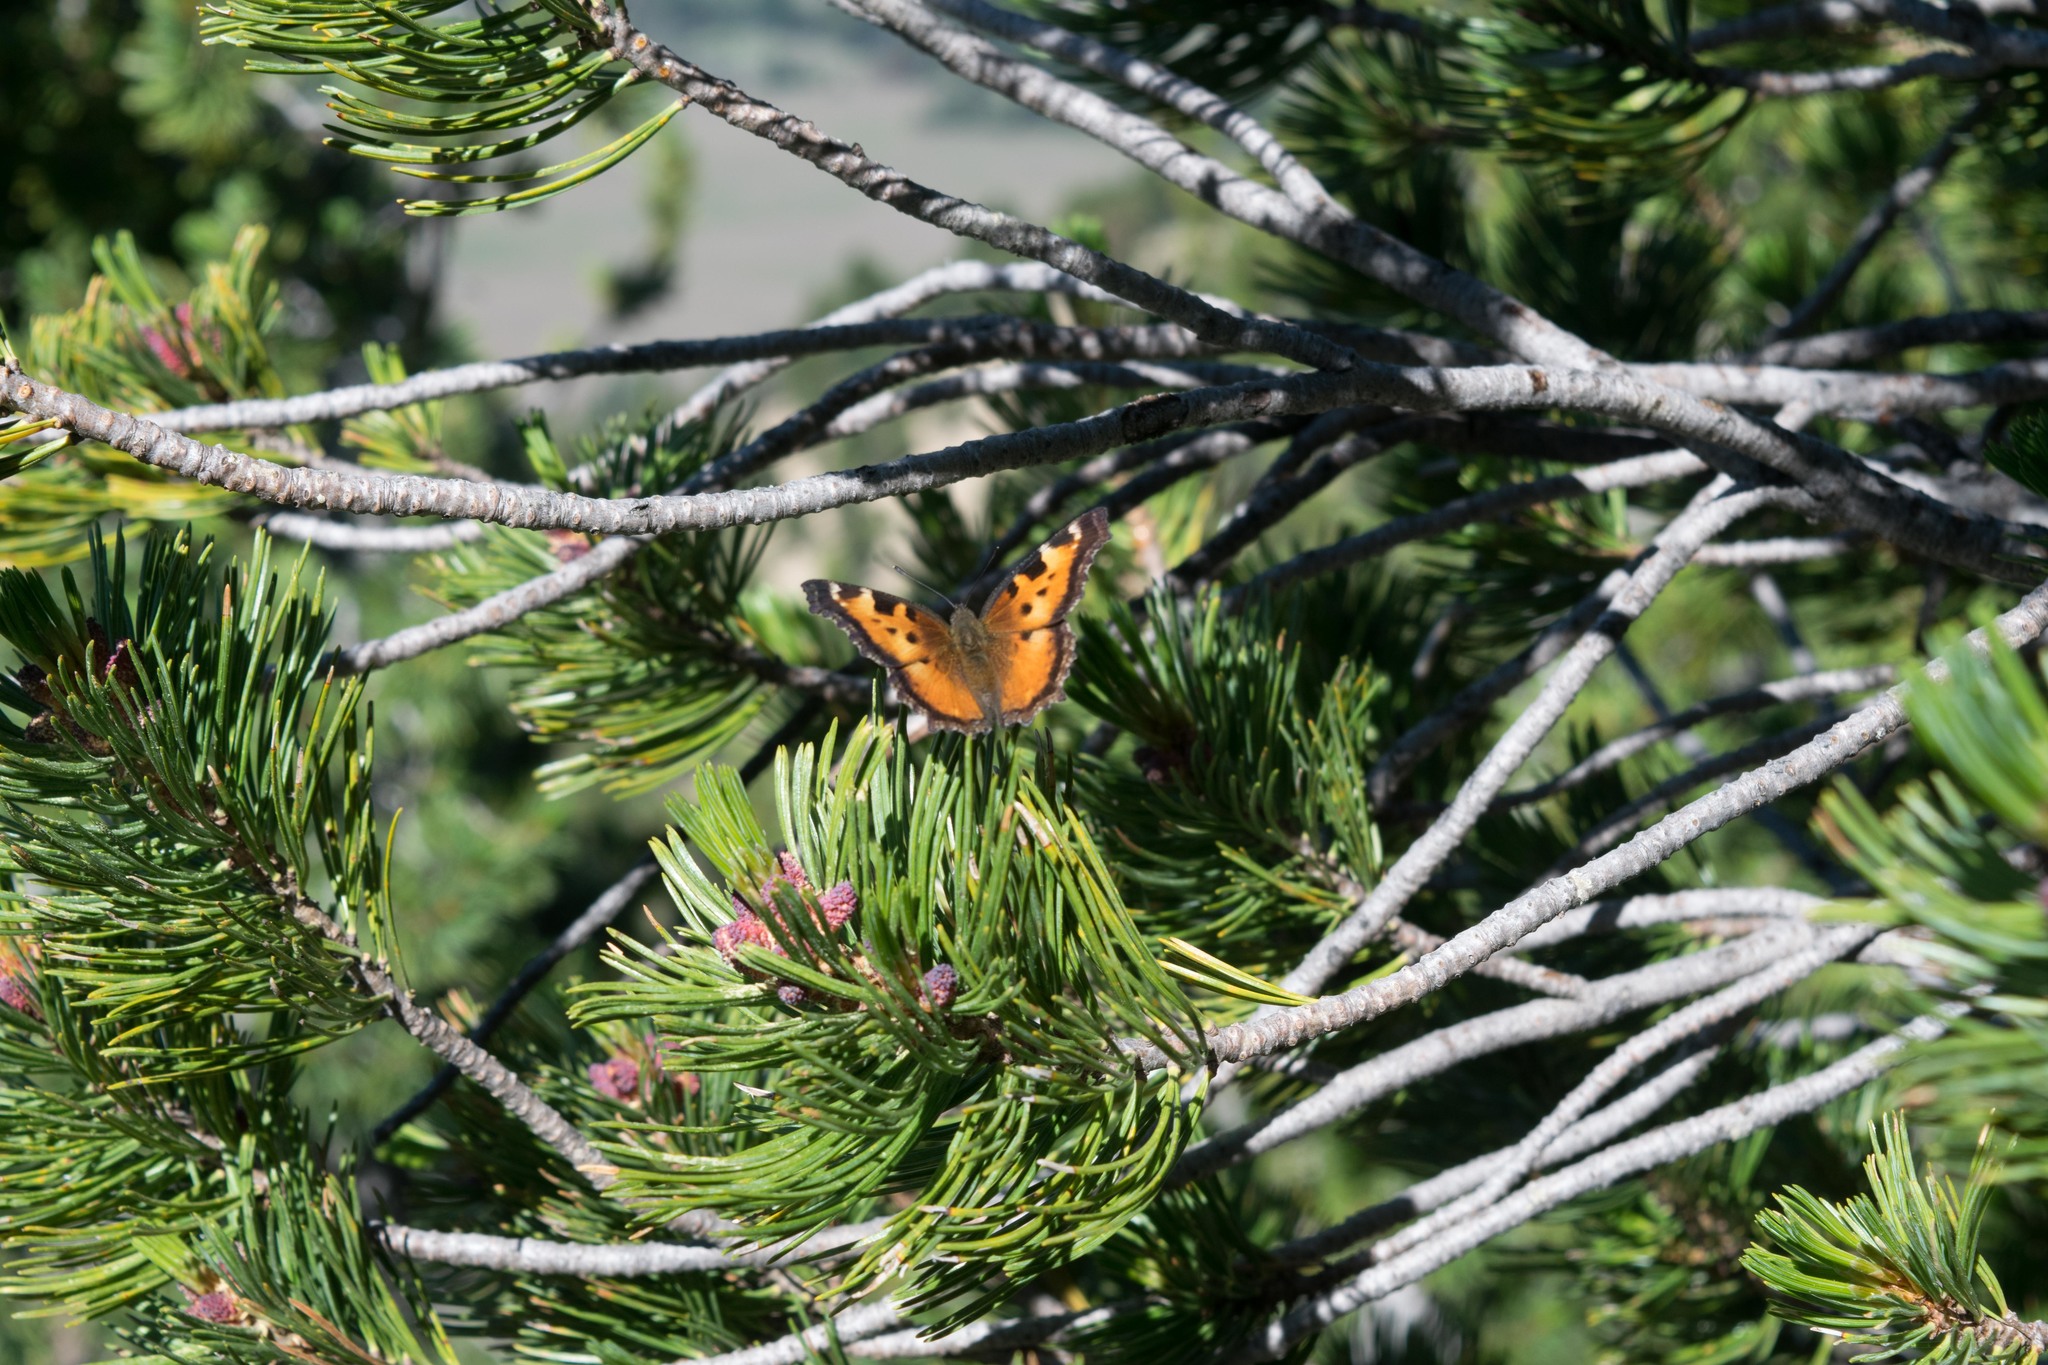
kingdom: Animalia
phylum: Arthropoda
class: Insecta
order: Lepidoptera
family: Nymphalidae
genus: Nymphalis
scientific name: Nymphalis californica
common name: California tortoiseshell
